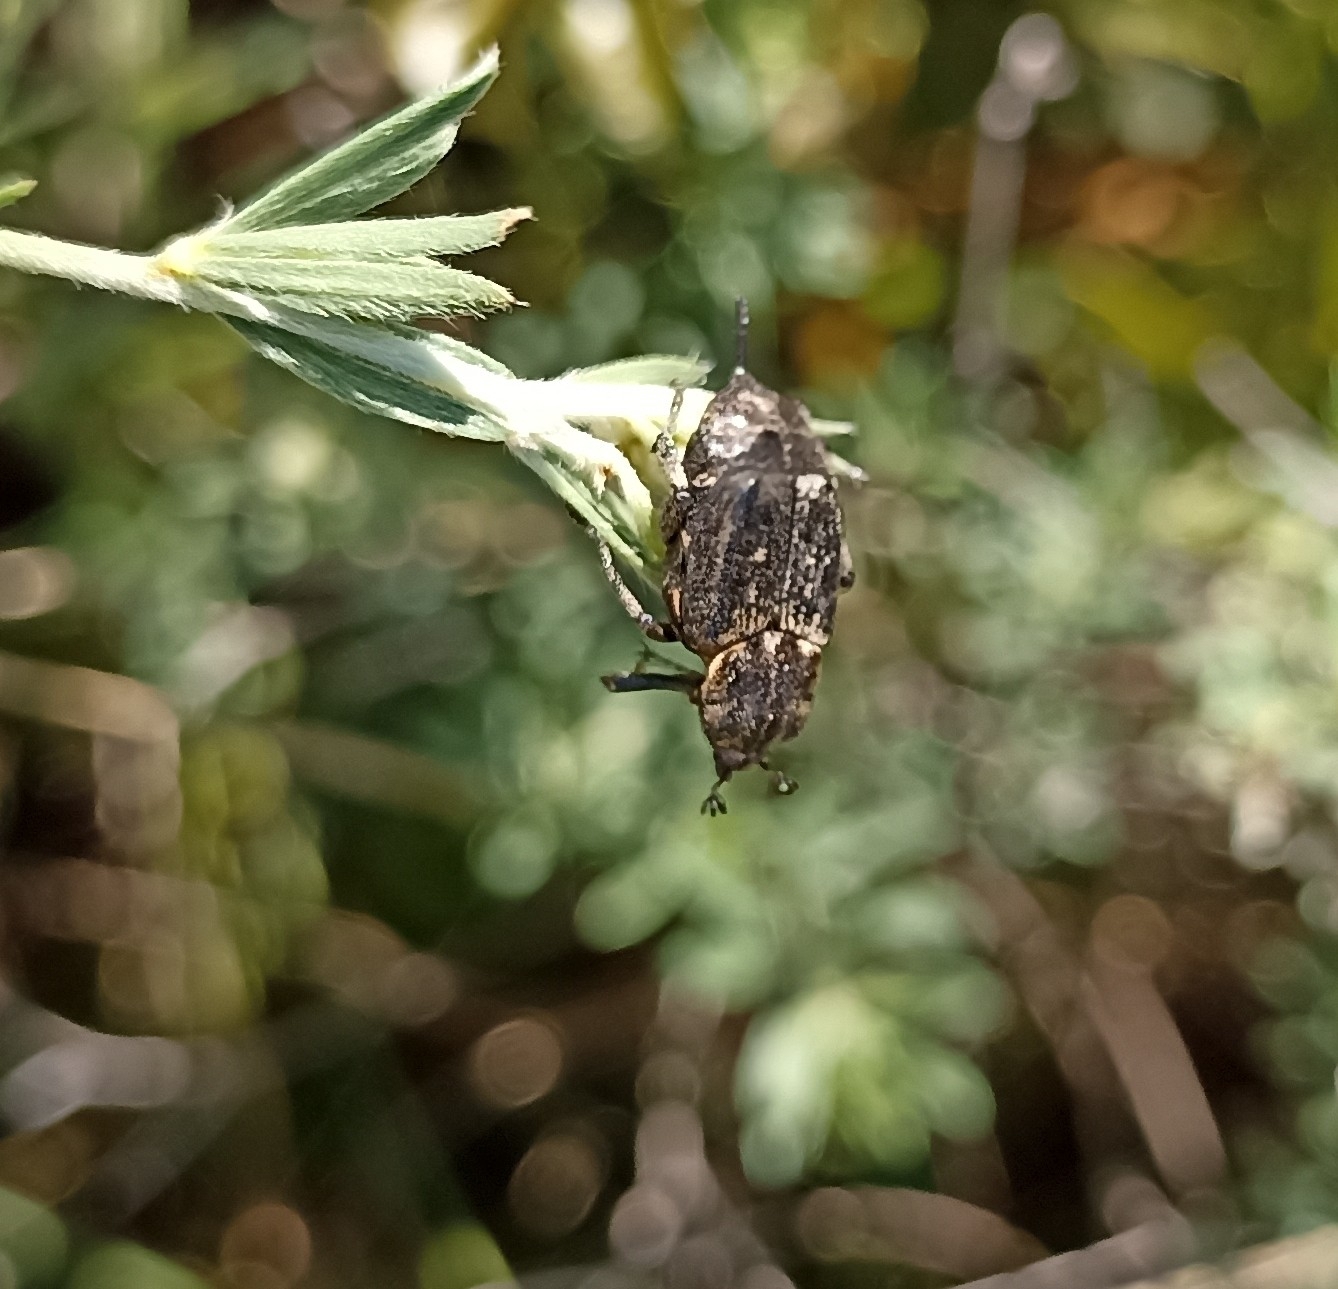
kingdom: Animalia
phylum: Arthropoda
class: Insecta
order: Coleoptera
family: Scarabaeidae
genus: Valgus
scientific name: Valgus hemipterus
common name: Bug flower chafer
